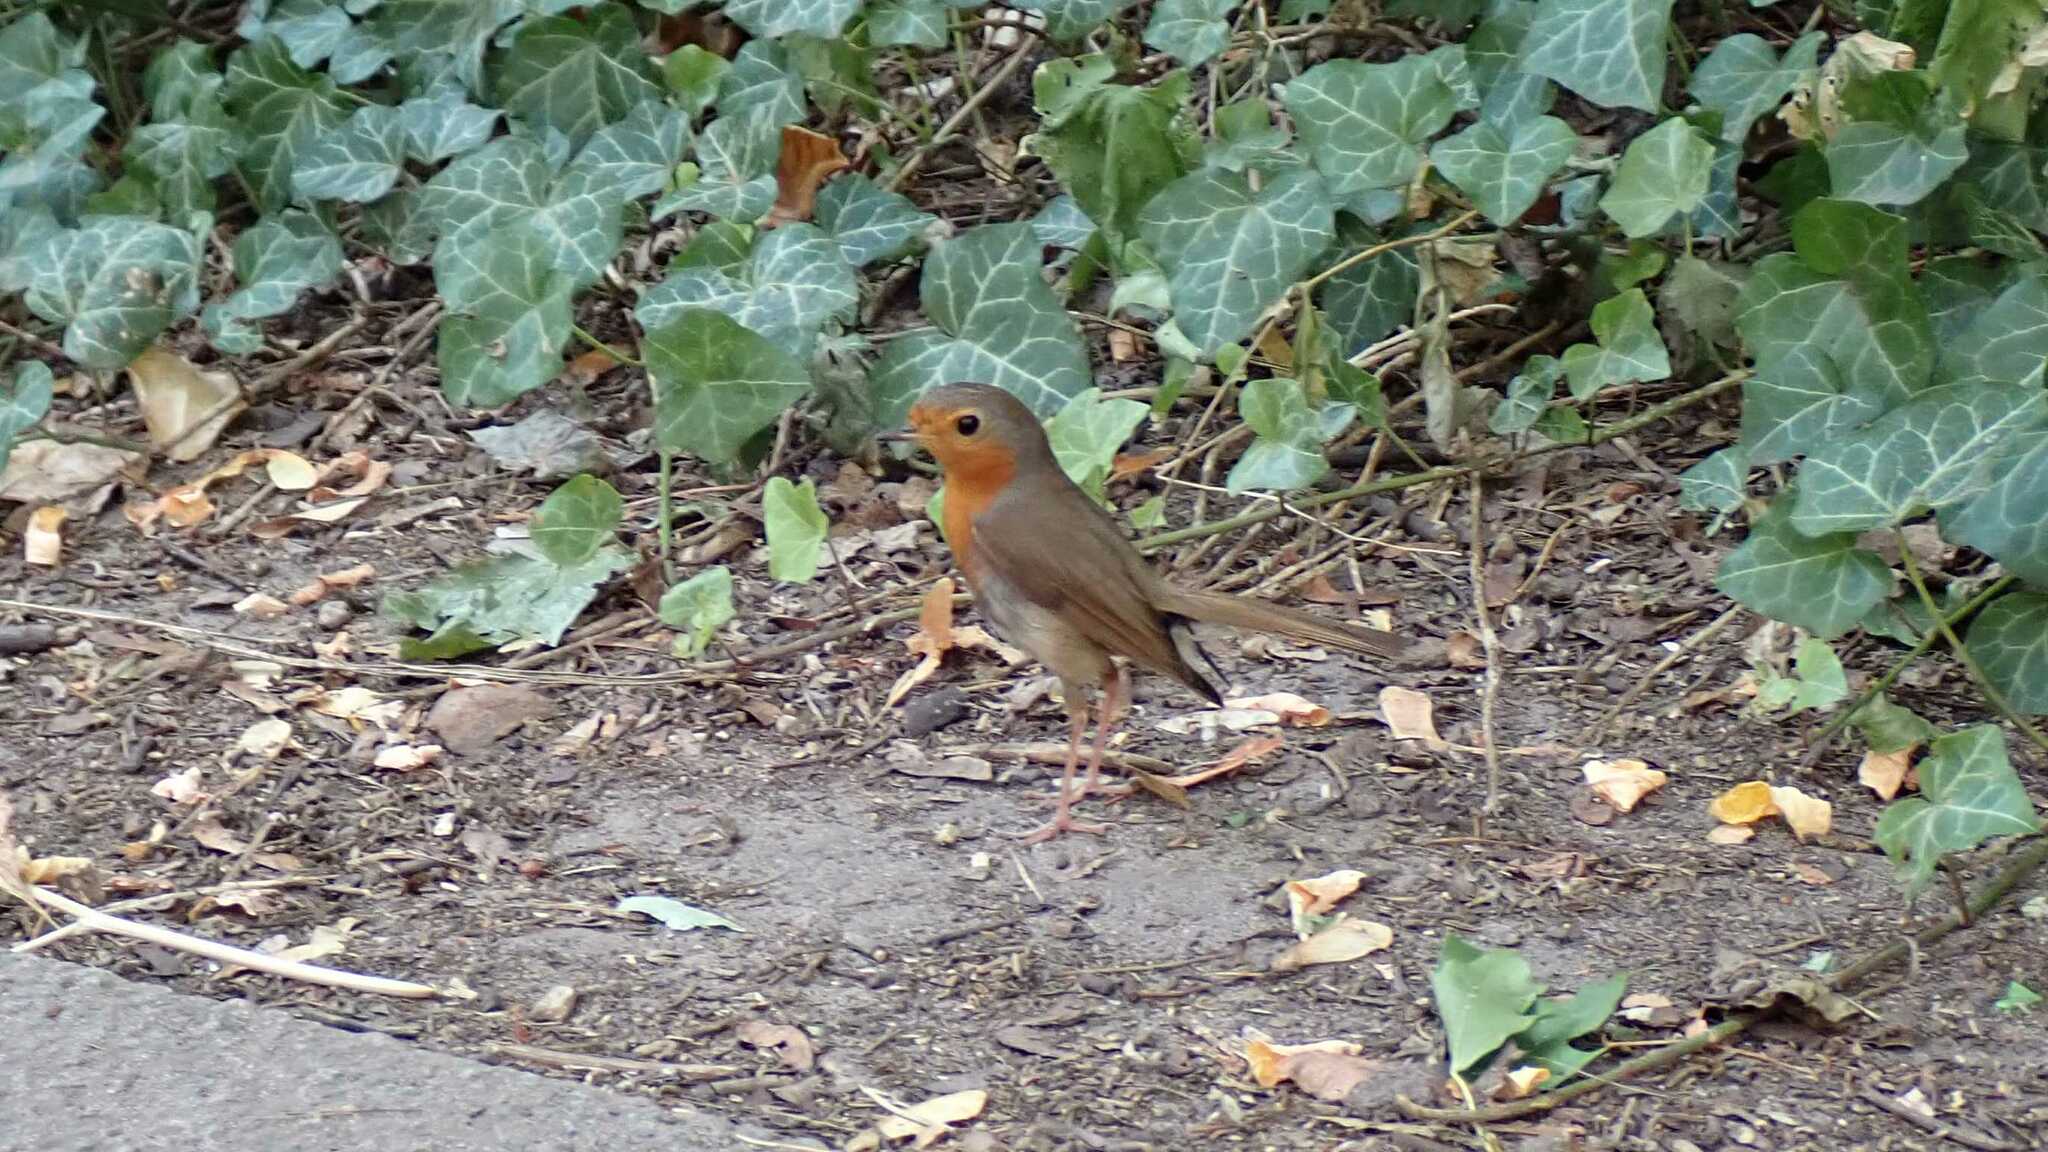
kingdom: Animalia
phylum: Chordata
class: Aves
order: Passeriformes
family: Muscicapidae
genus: Erithacus
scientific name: Erithacus rubecula
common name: European robin
